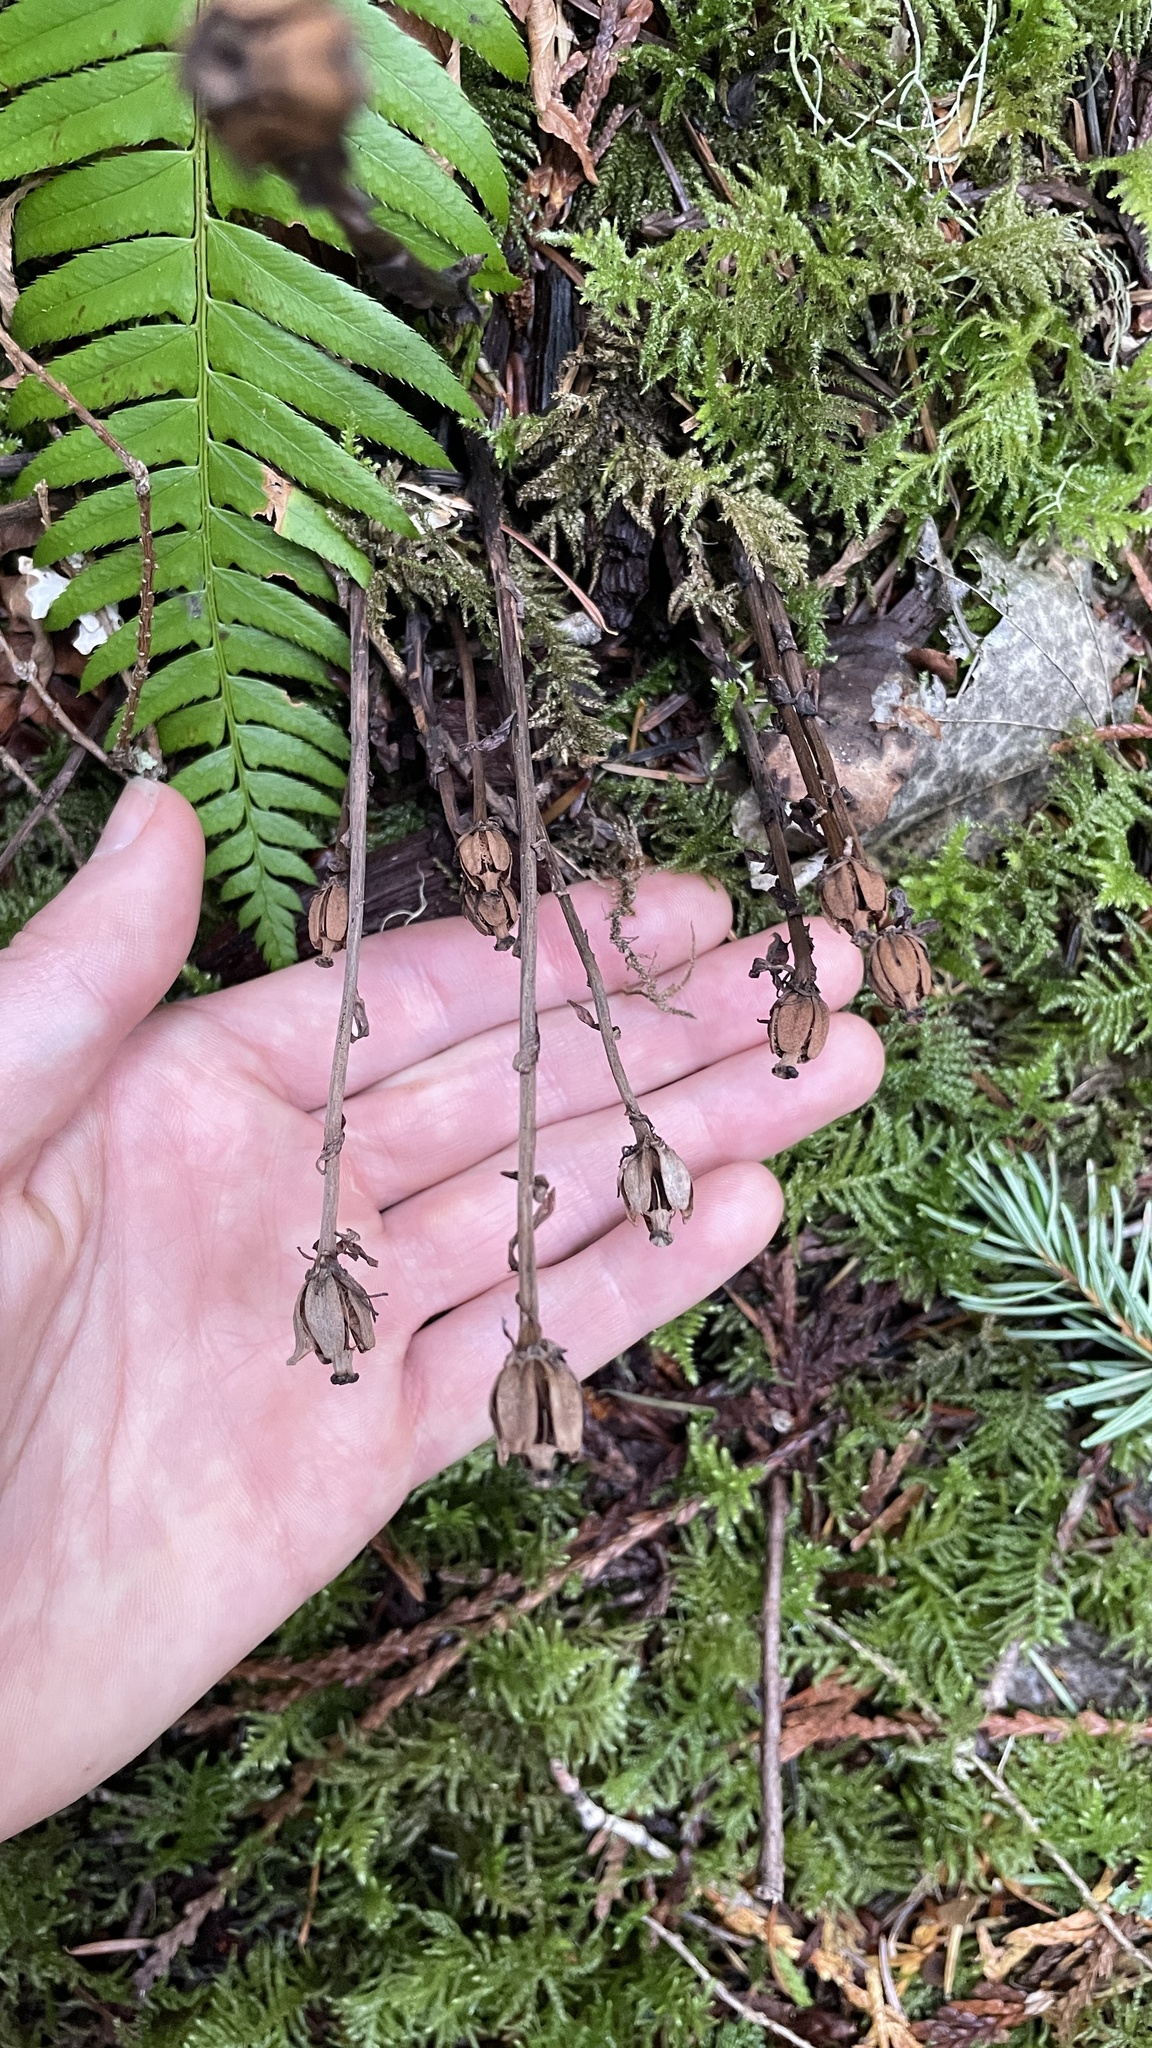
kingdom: Plantae
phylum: Tracheophyta
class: Magnoliopsida
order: Ericales
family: Ericaceae
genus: Monotropa
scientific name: Monotropa uniflora
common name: Convulsion root
